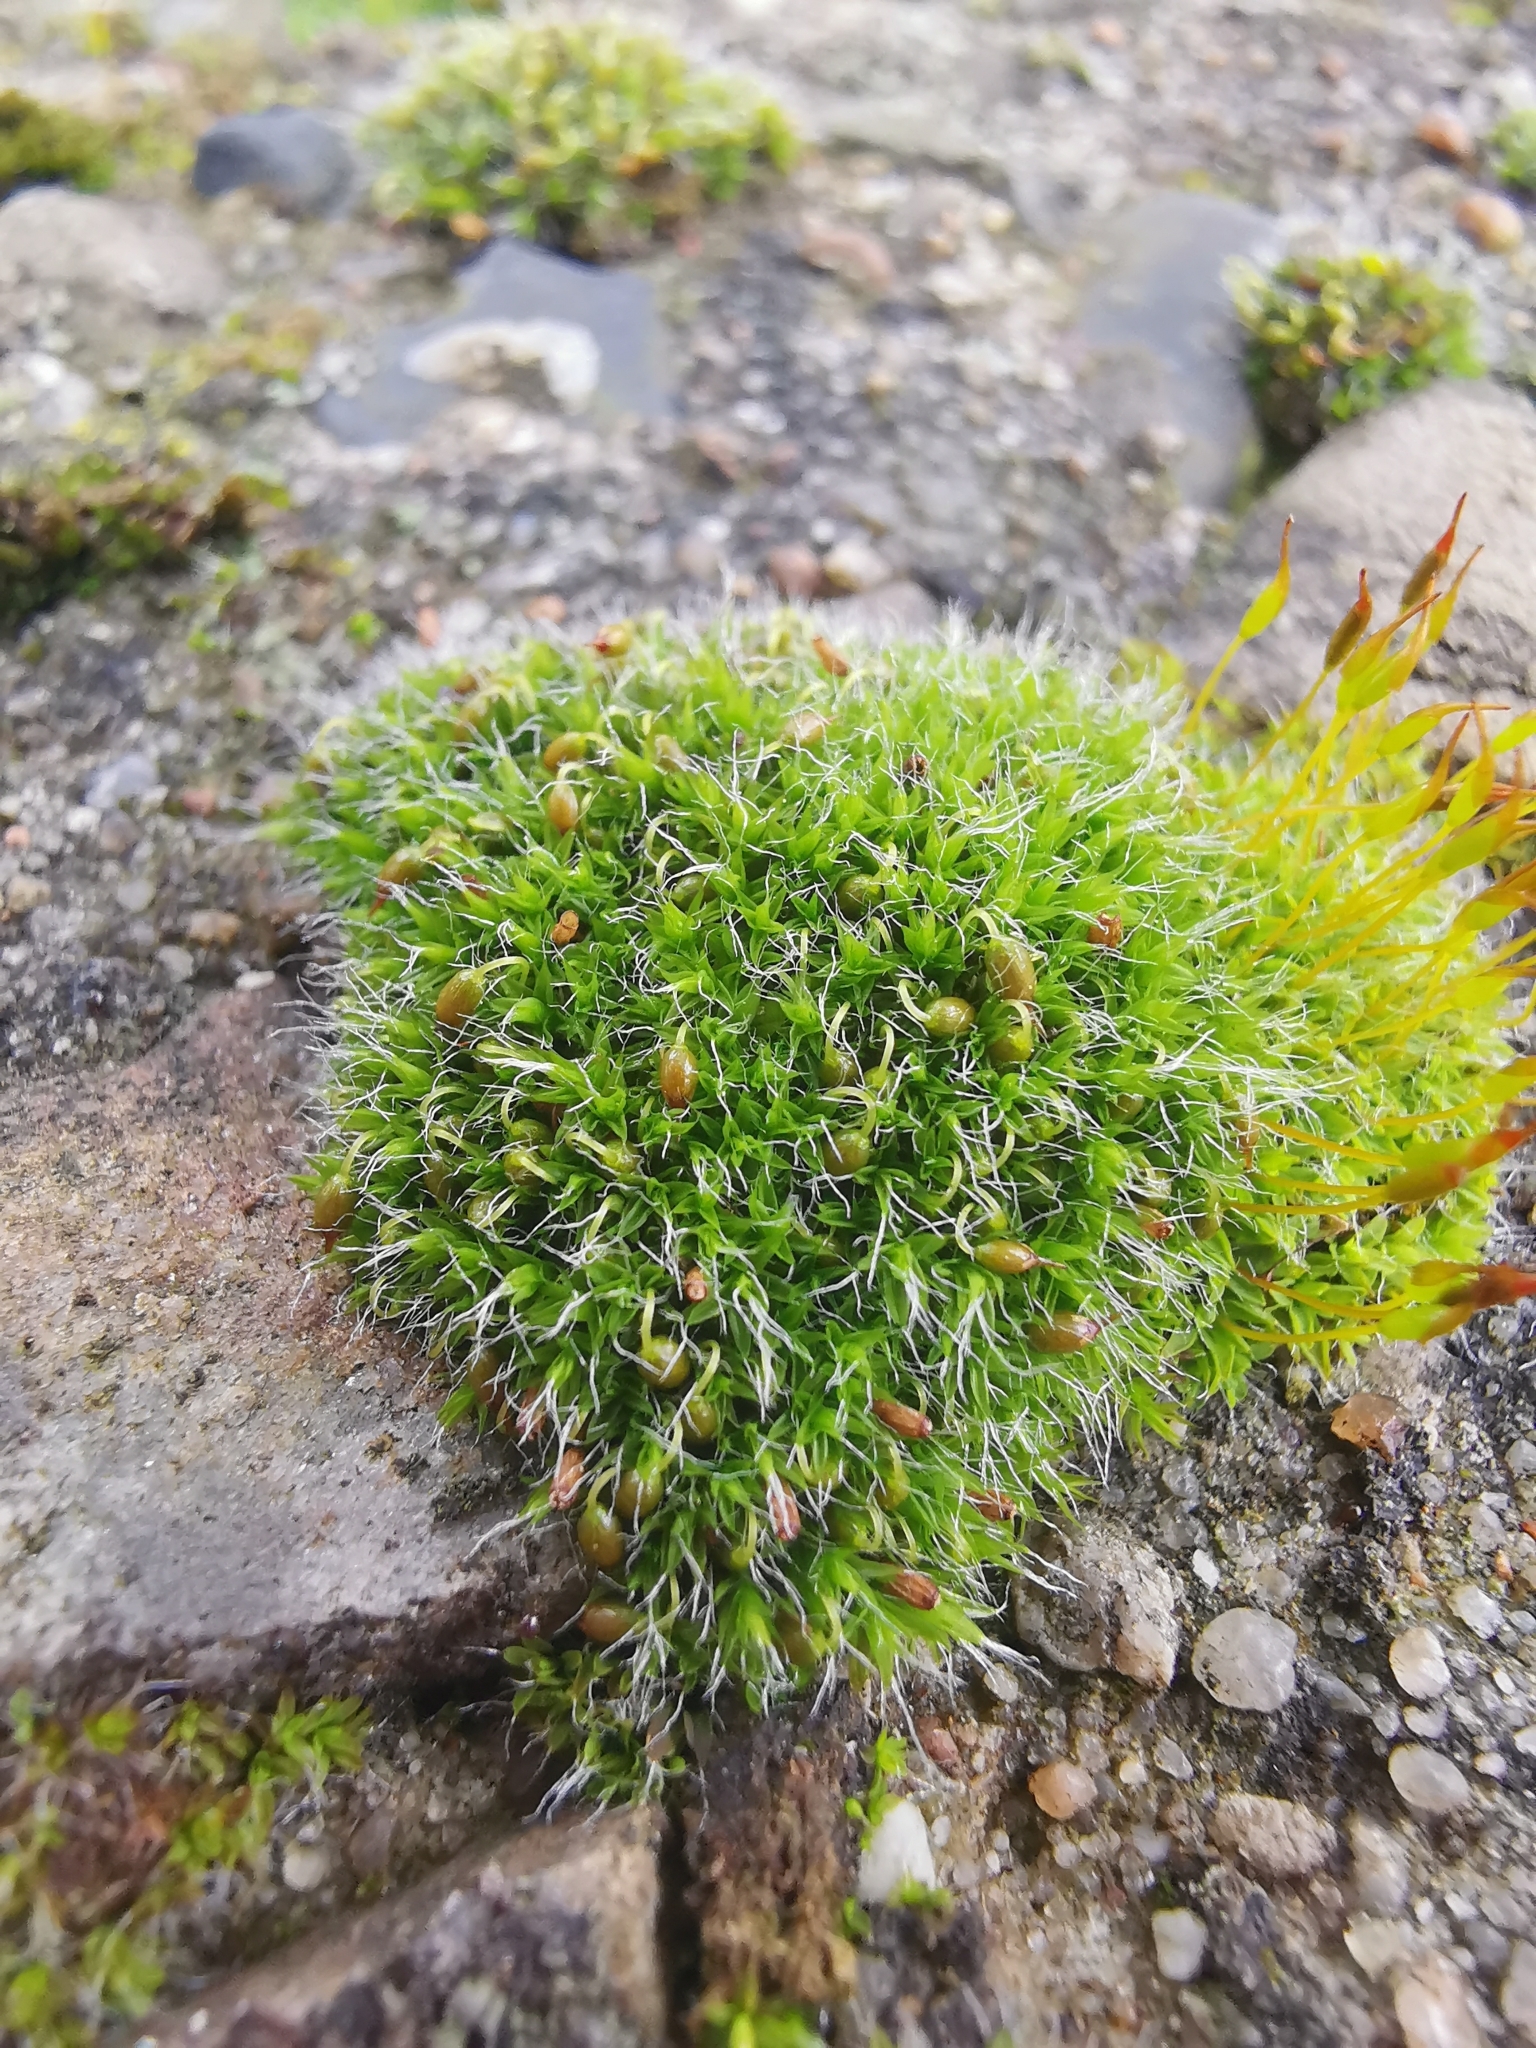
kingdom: Plantae
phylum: Bryophyta
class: Bryopsida
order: Grimmiales
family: Grimmiaceae
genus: Grimmia
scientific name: Grimmia pulvinata
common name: Grey-cushioned grimmia
